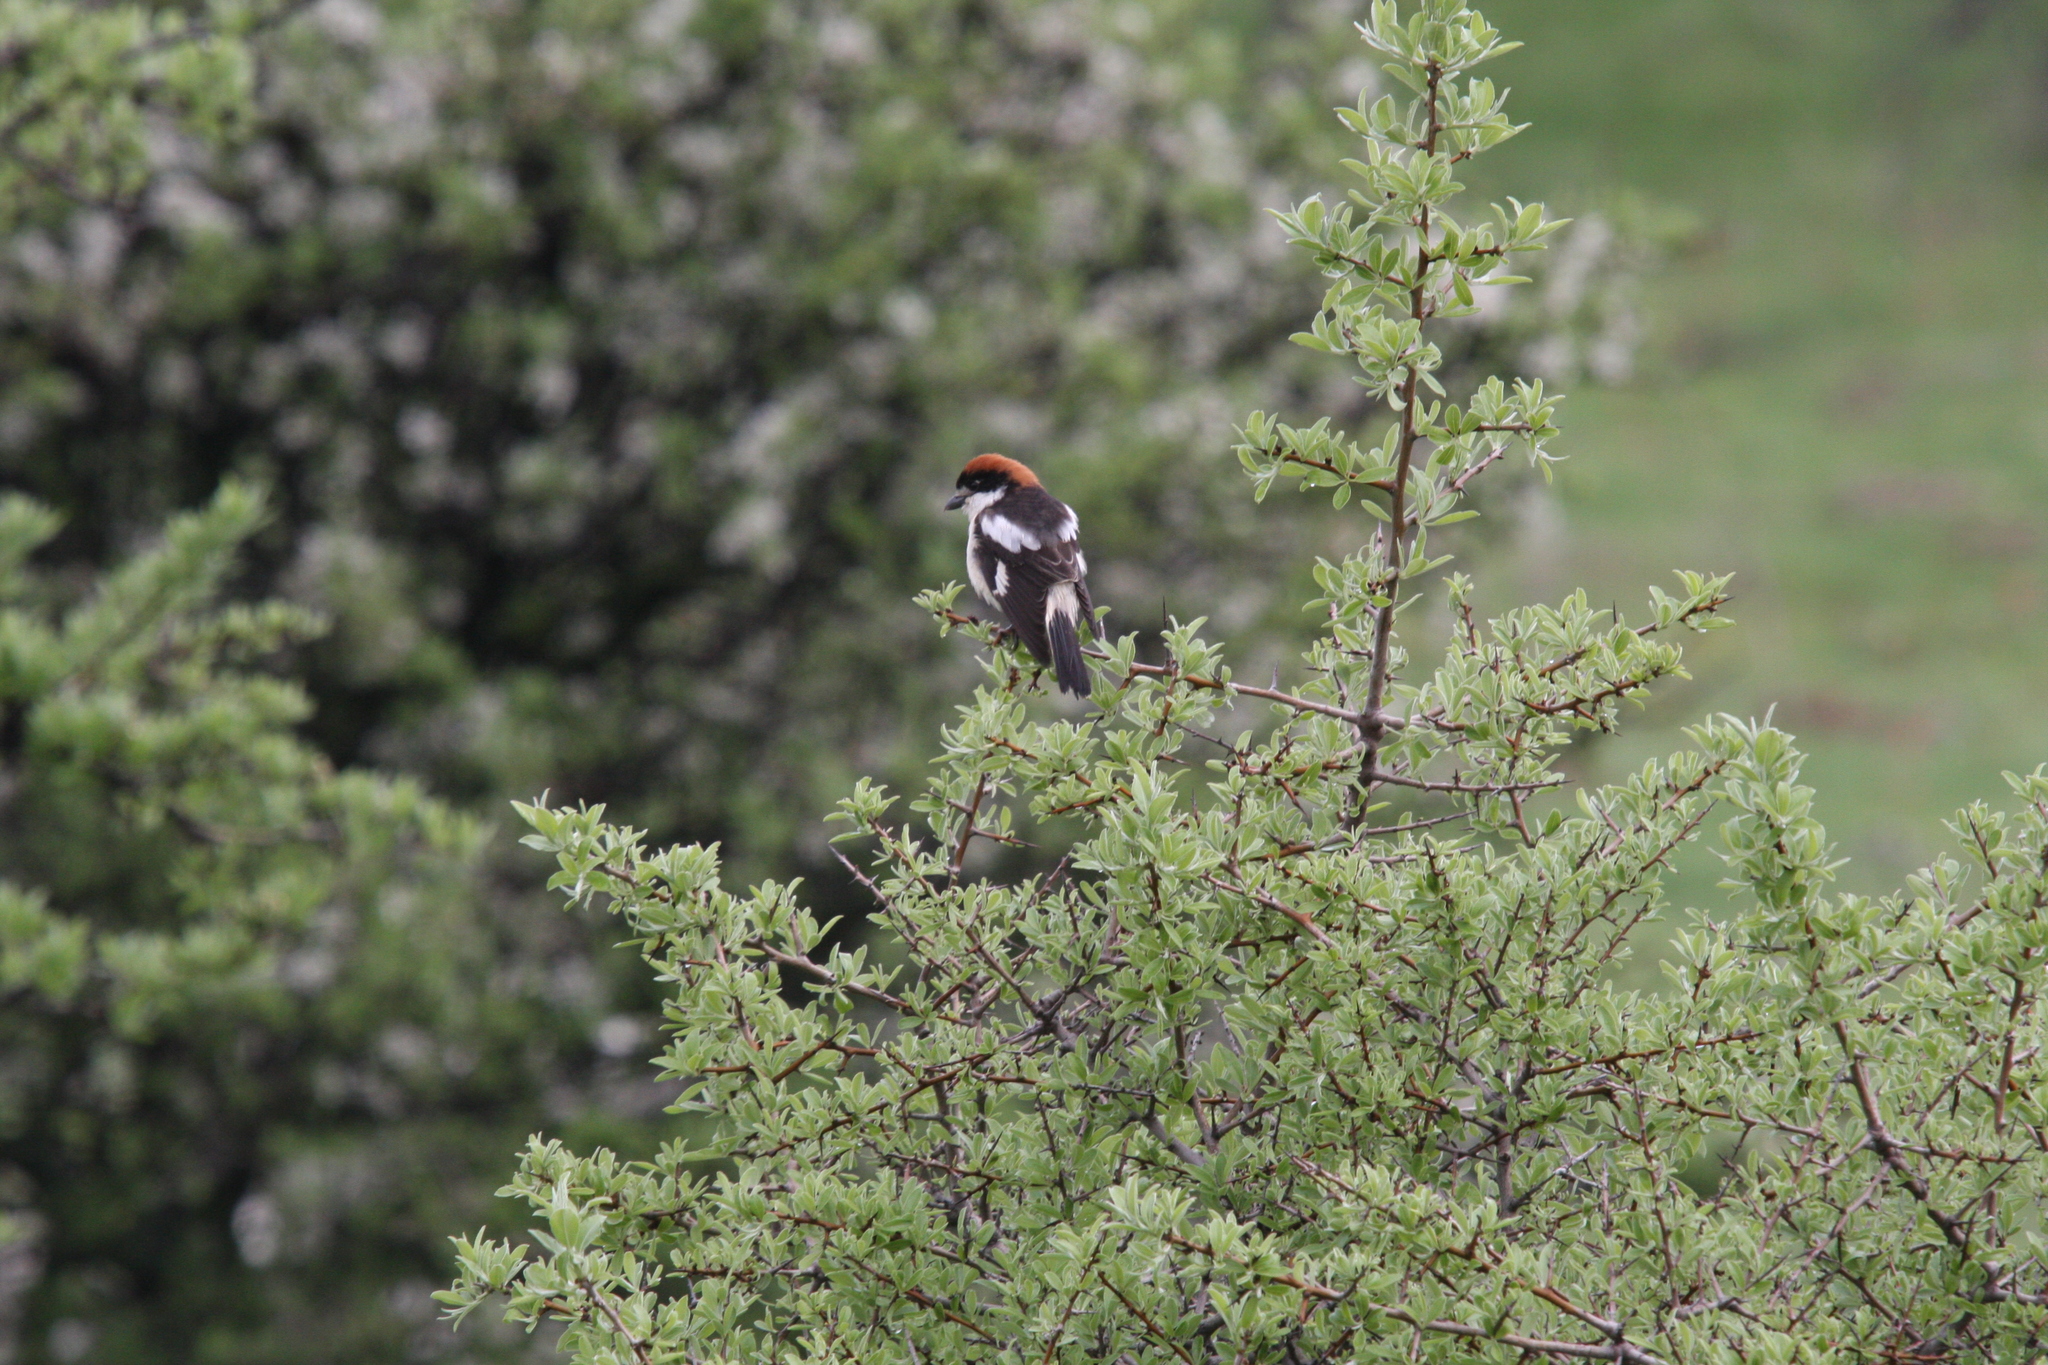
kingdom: Animalia
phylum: Chordata
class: Aves
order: Passeriformes
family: Laniidae
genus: Lanius
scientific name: Lanius senator
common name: Woodchat shrike
